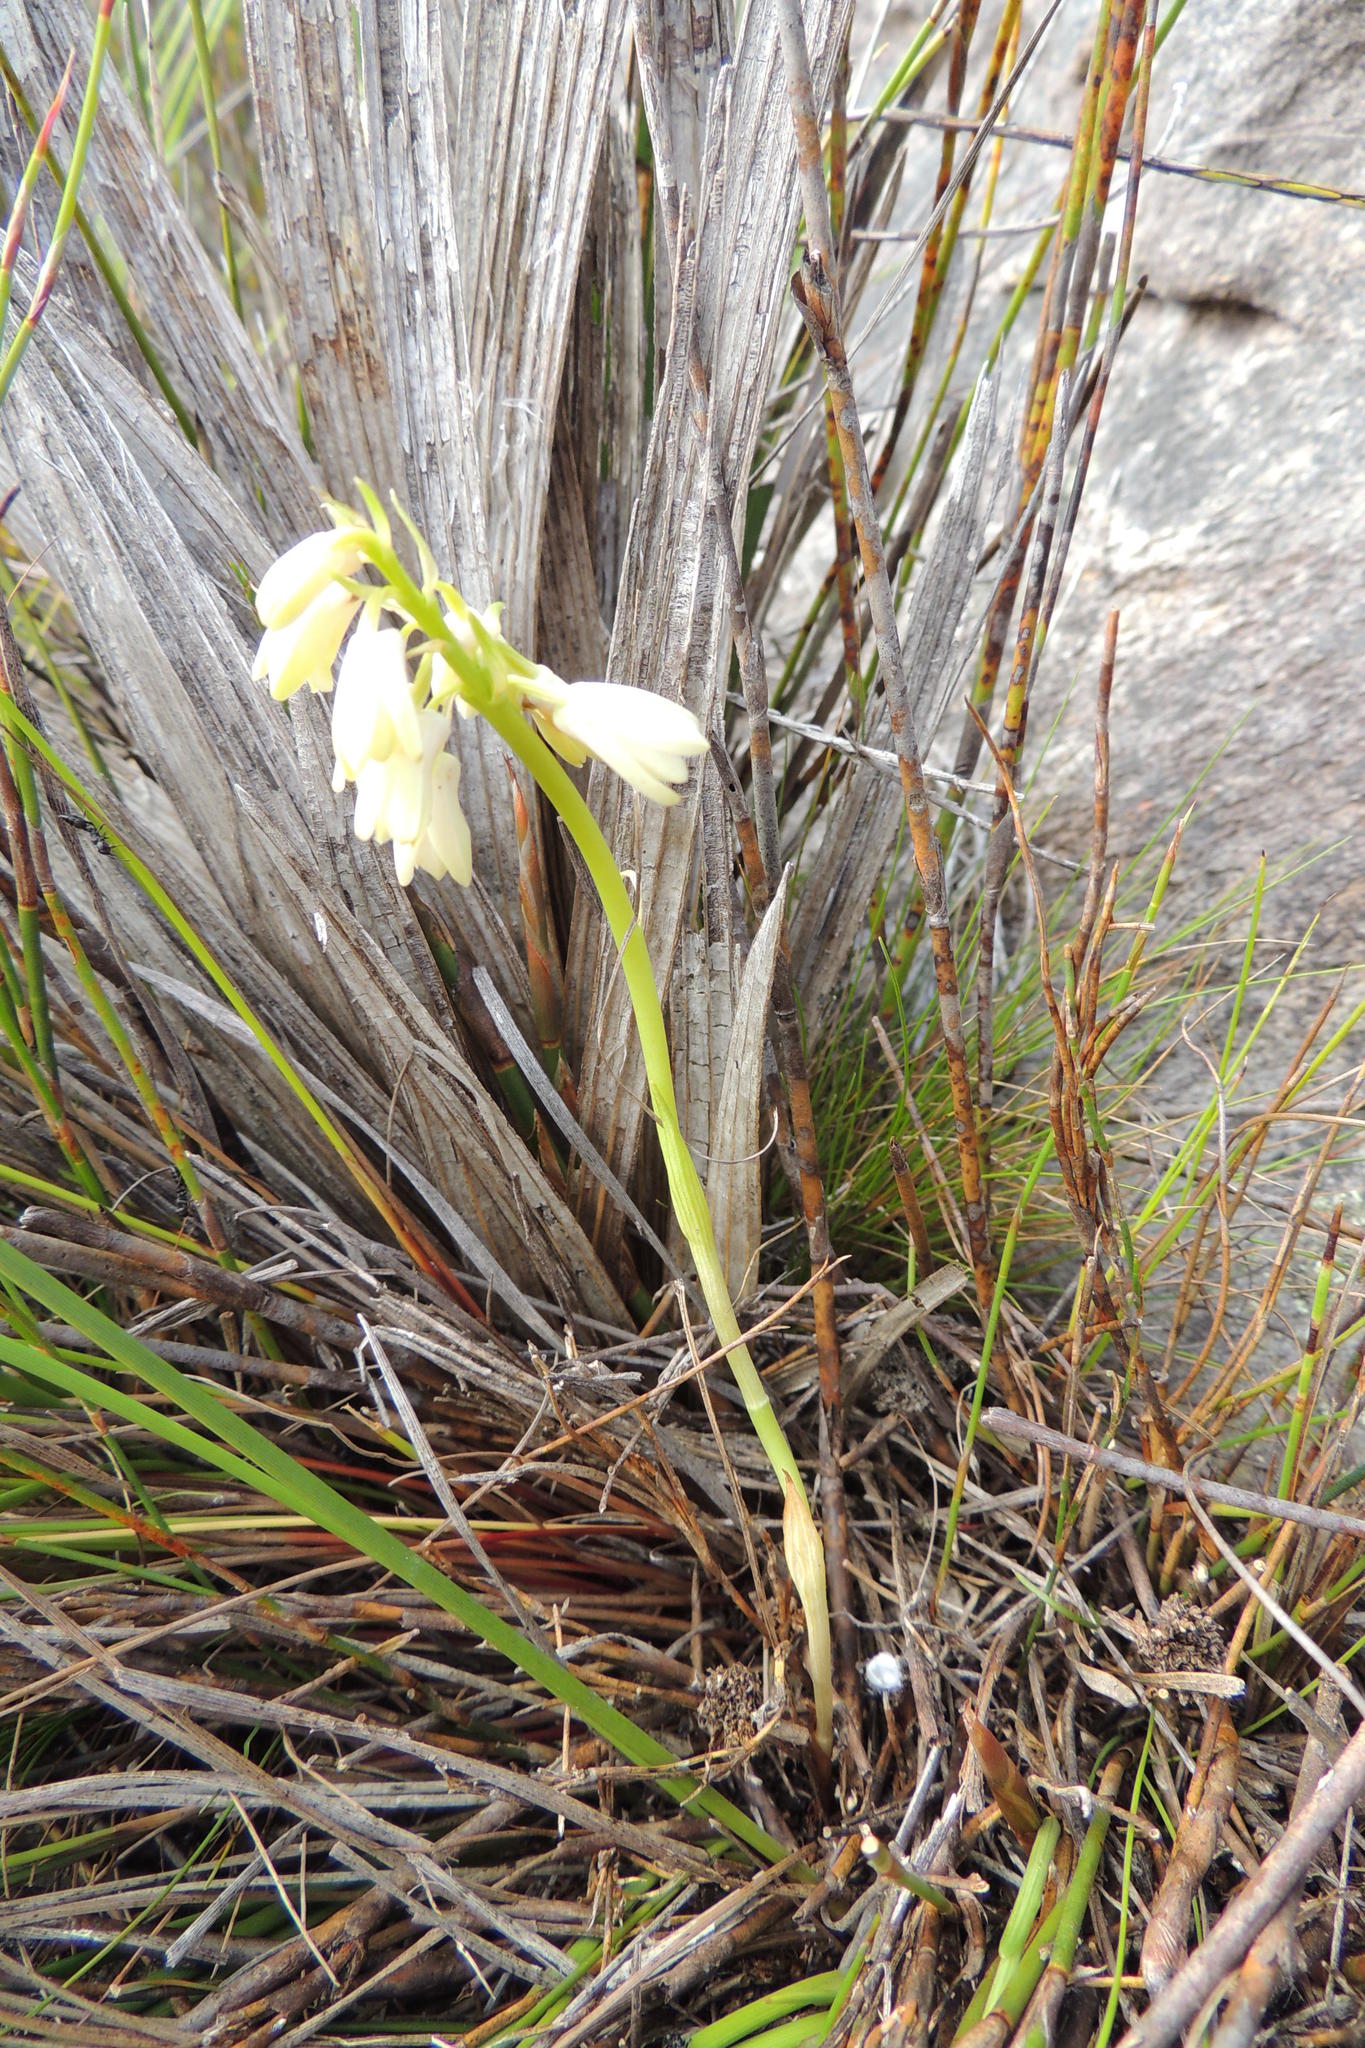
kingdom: Plantae
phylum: Tracheophyta
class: Liliopsida
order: Asparagales
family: Orchidaceae
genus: Eulophia
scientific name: Eulophia aculeata
